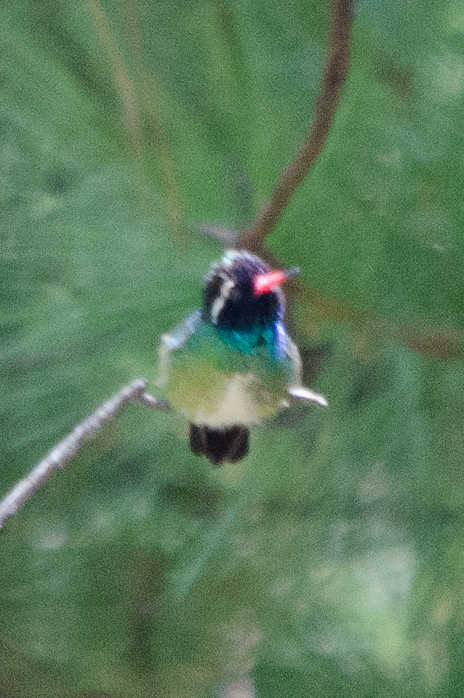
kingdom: Animalia
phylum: Chordata
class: Aves
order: Apodiformes
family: Trochilidae
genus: Basilinna
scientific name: Basilinna leucotis
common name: White-eared hummingbird
